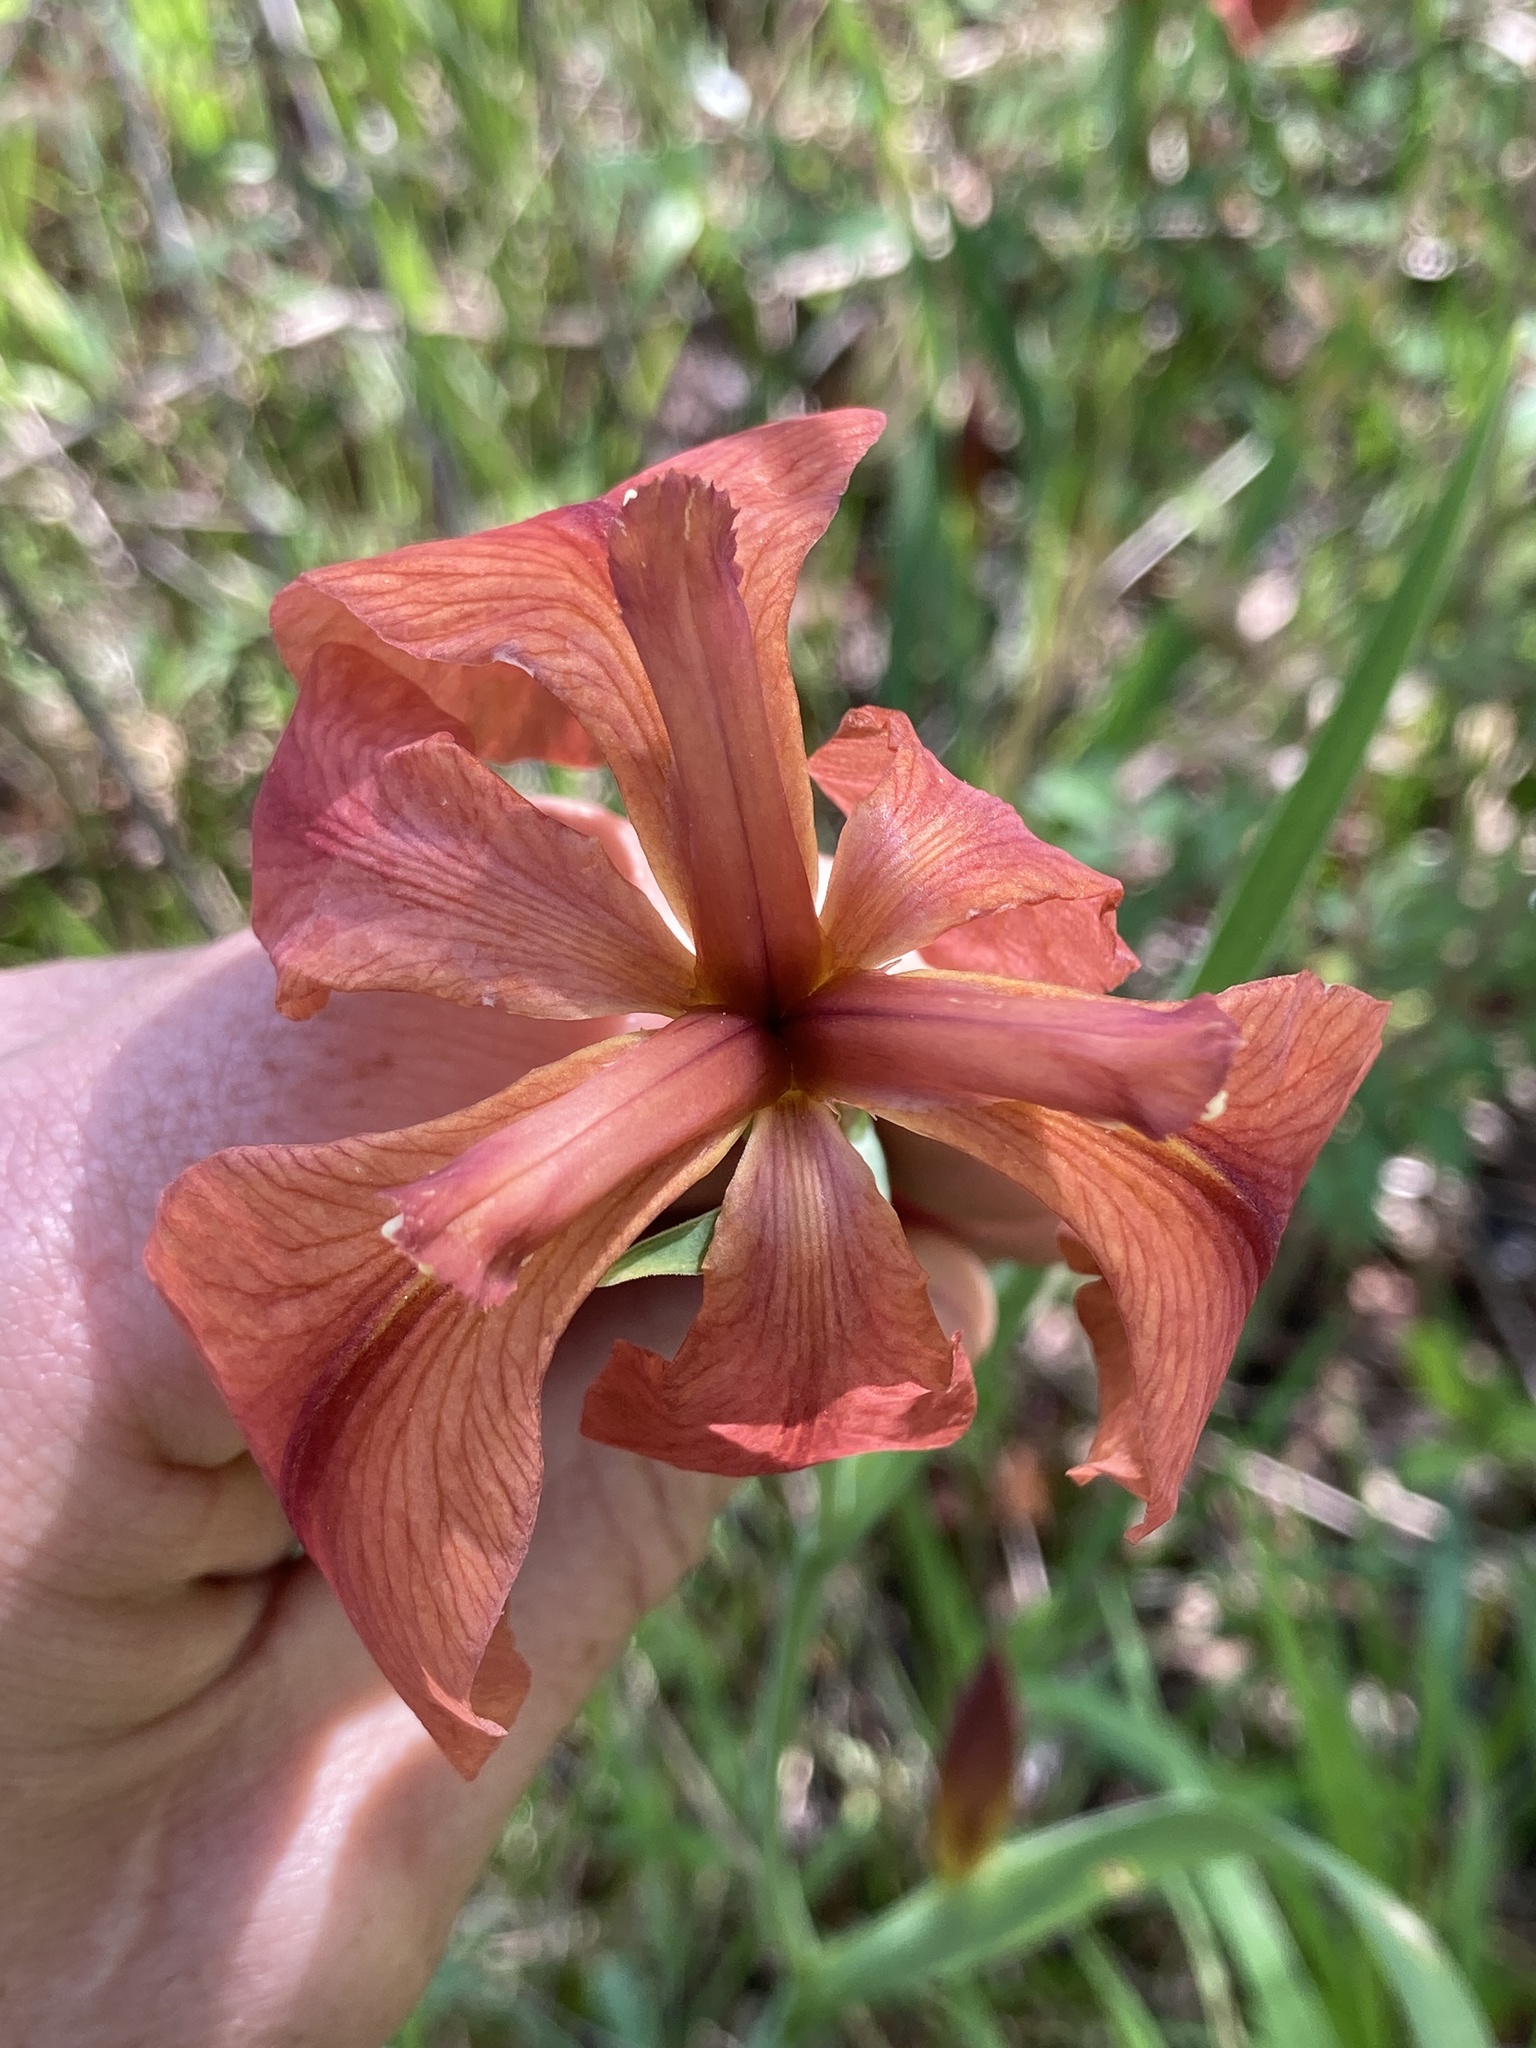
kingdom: Plantae
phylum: Tracheophyta
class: Liliopsida
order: Asparagales
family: Iridaceae
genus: Iris
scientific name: Iris fulva
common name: Copper iris
